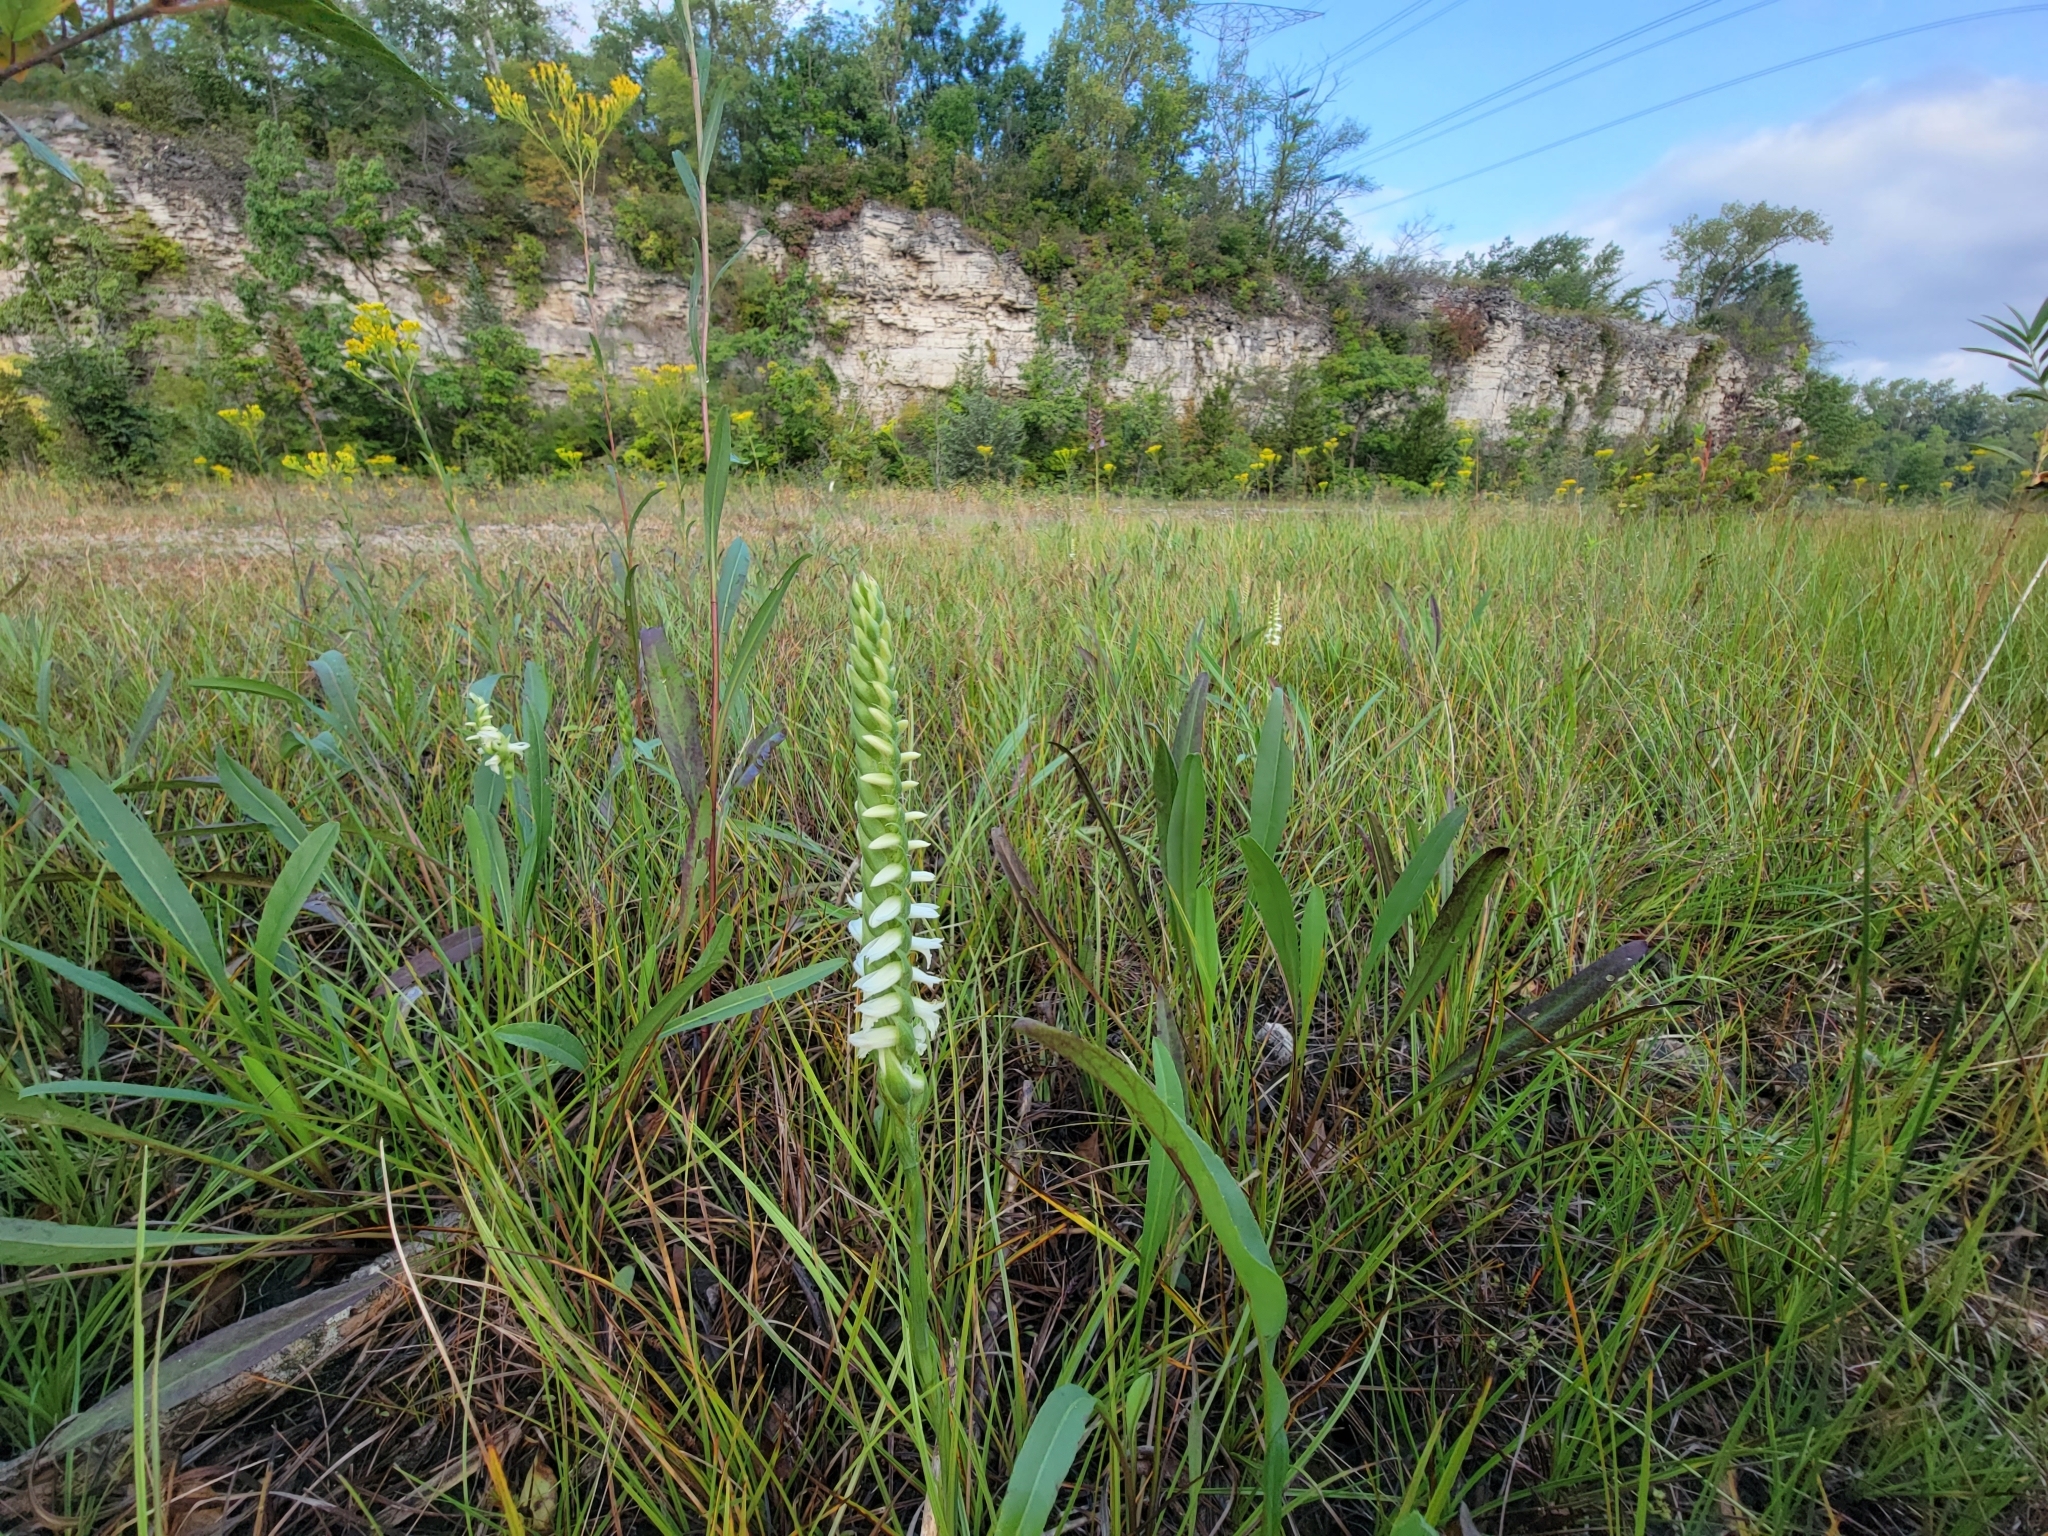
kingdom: Plantae
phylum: Tracheophyta
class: Liliopsida
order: Asparagales
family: Orchidaceae
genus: Spiranthes
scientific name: Spiranthes magnicamporum
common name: Great plains ladies'-tresses
